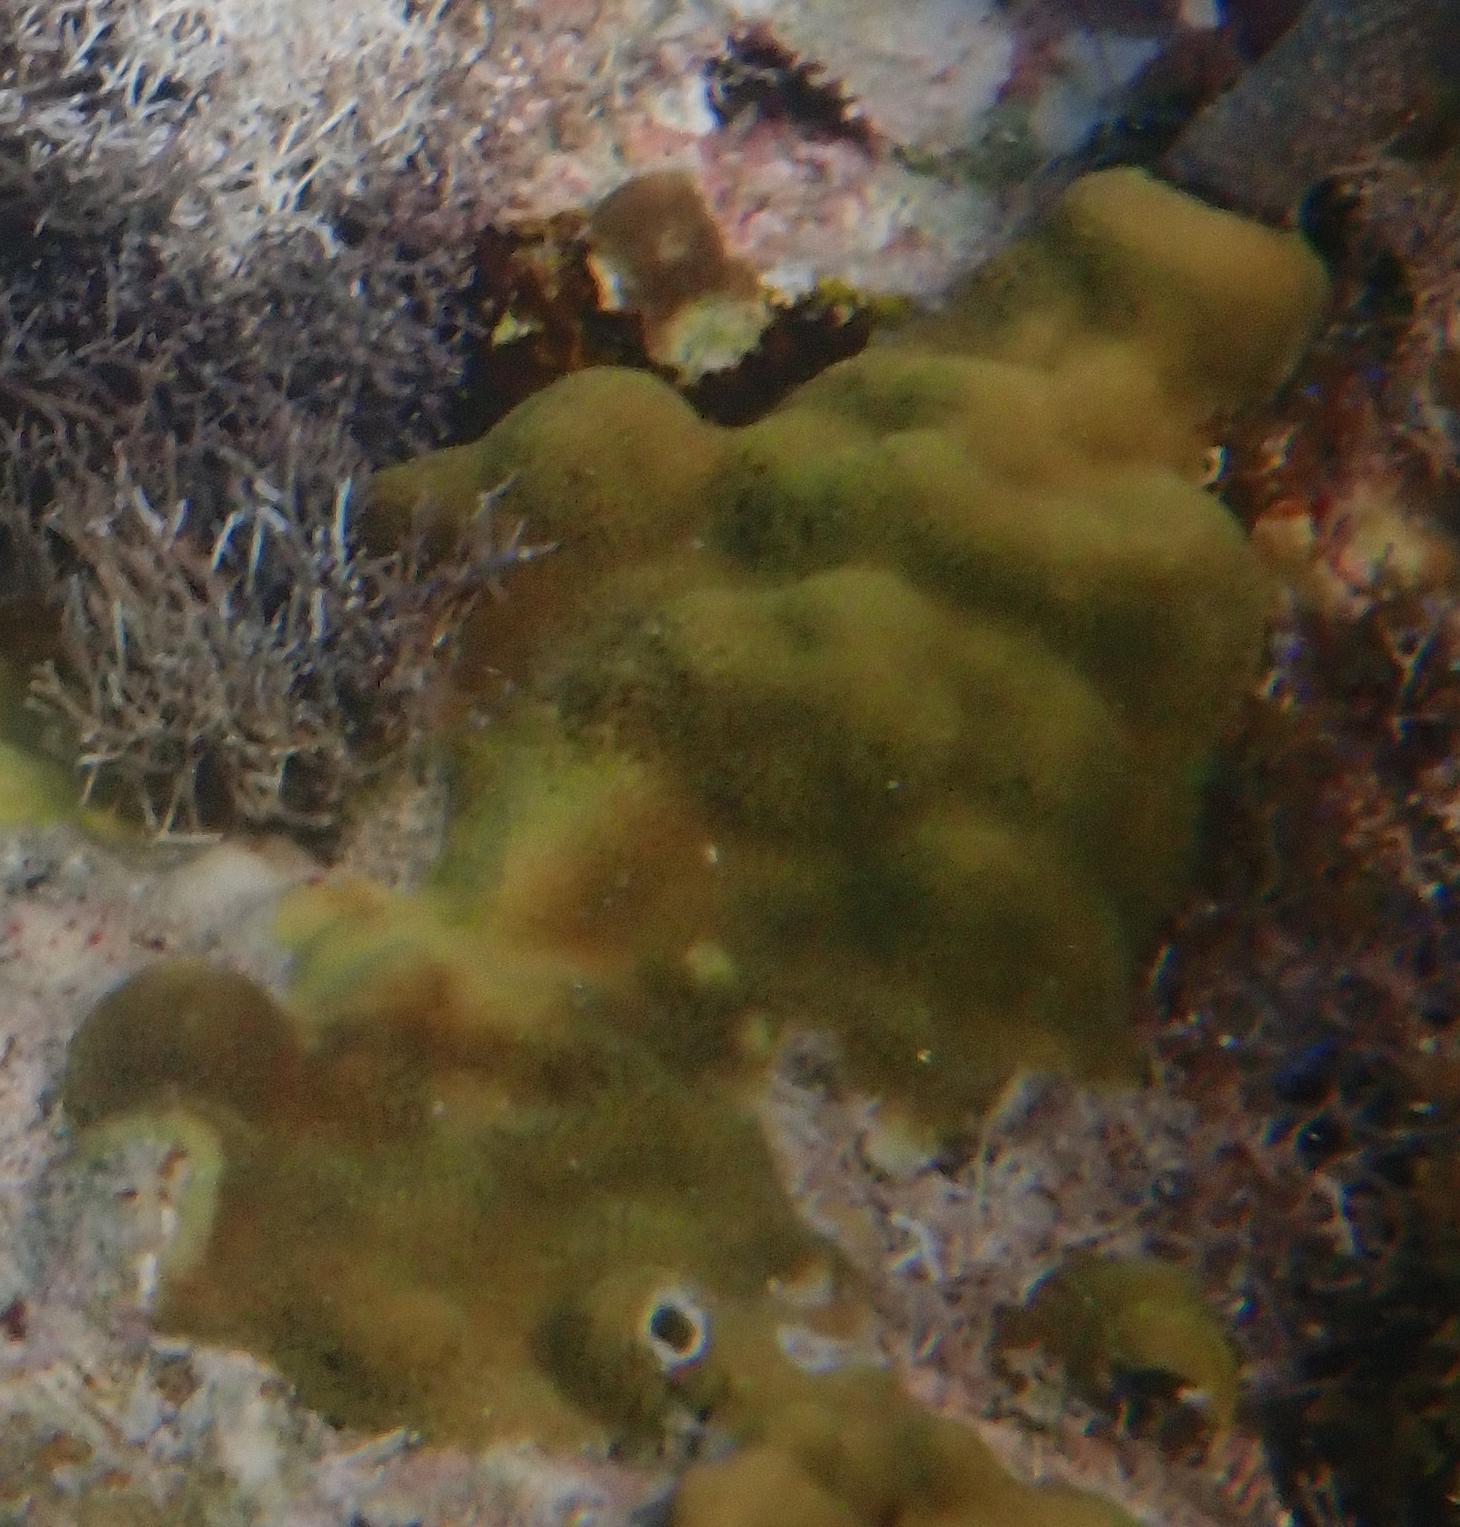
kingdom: Animalia
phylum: Cnidaria
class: Anthozoa
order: Scleractinia
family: Poritidae
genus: Porites
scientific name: Porites astreoides
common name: Mustard hill coral
